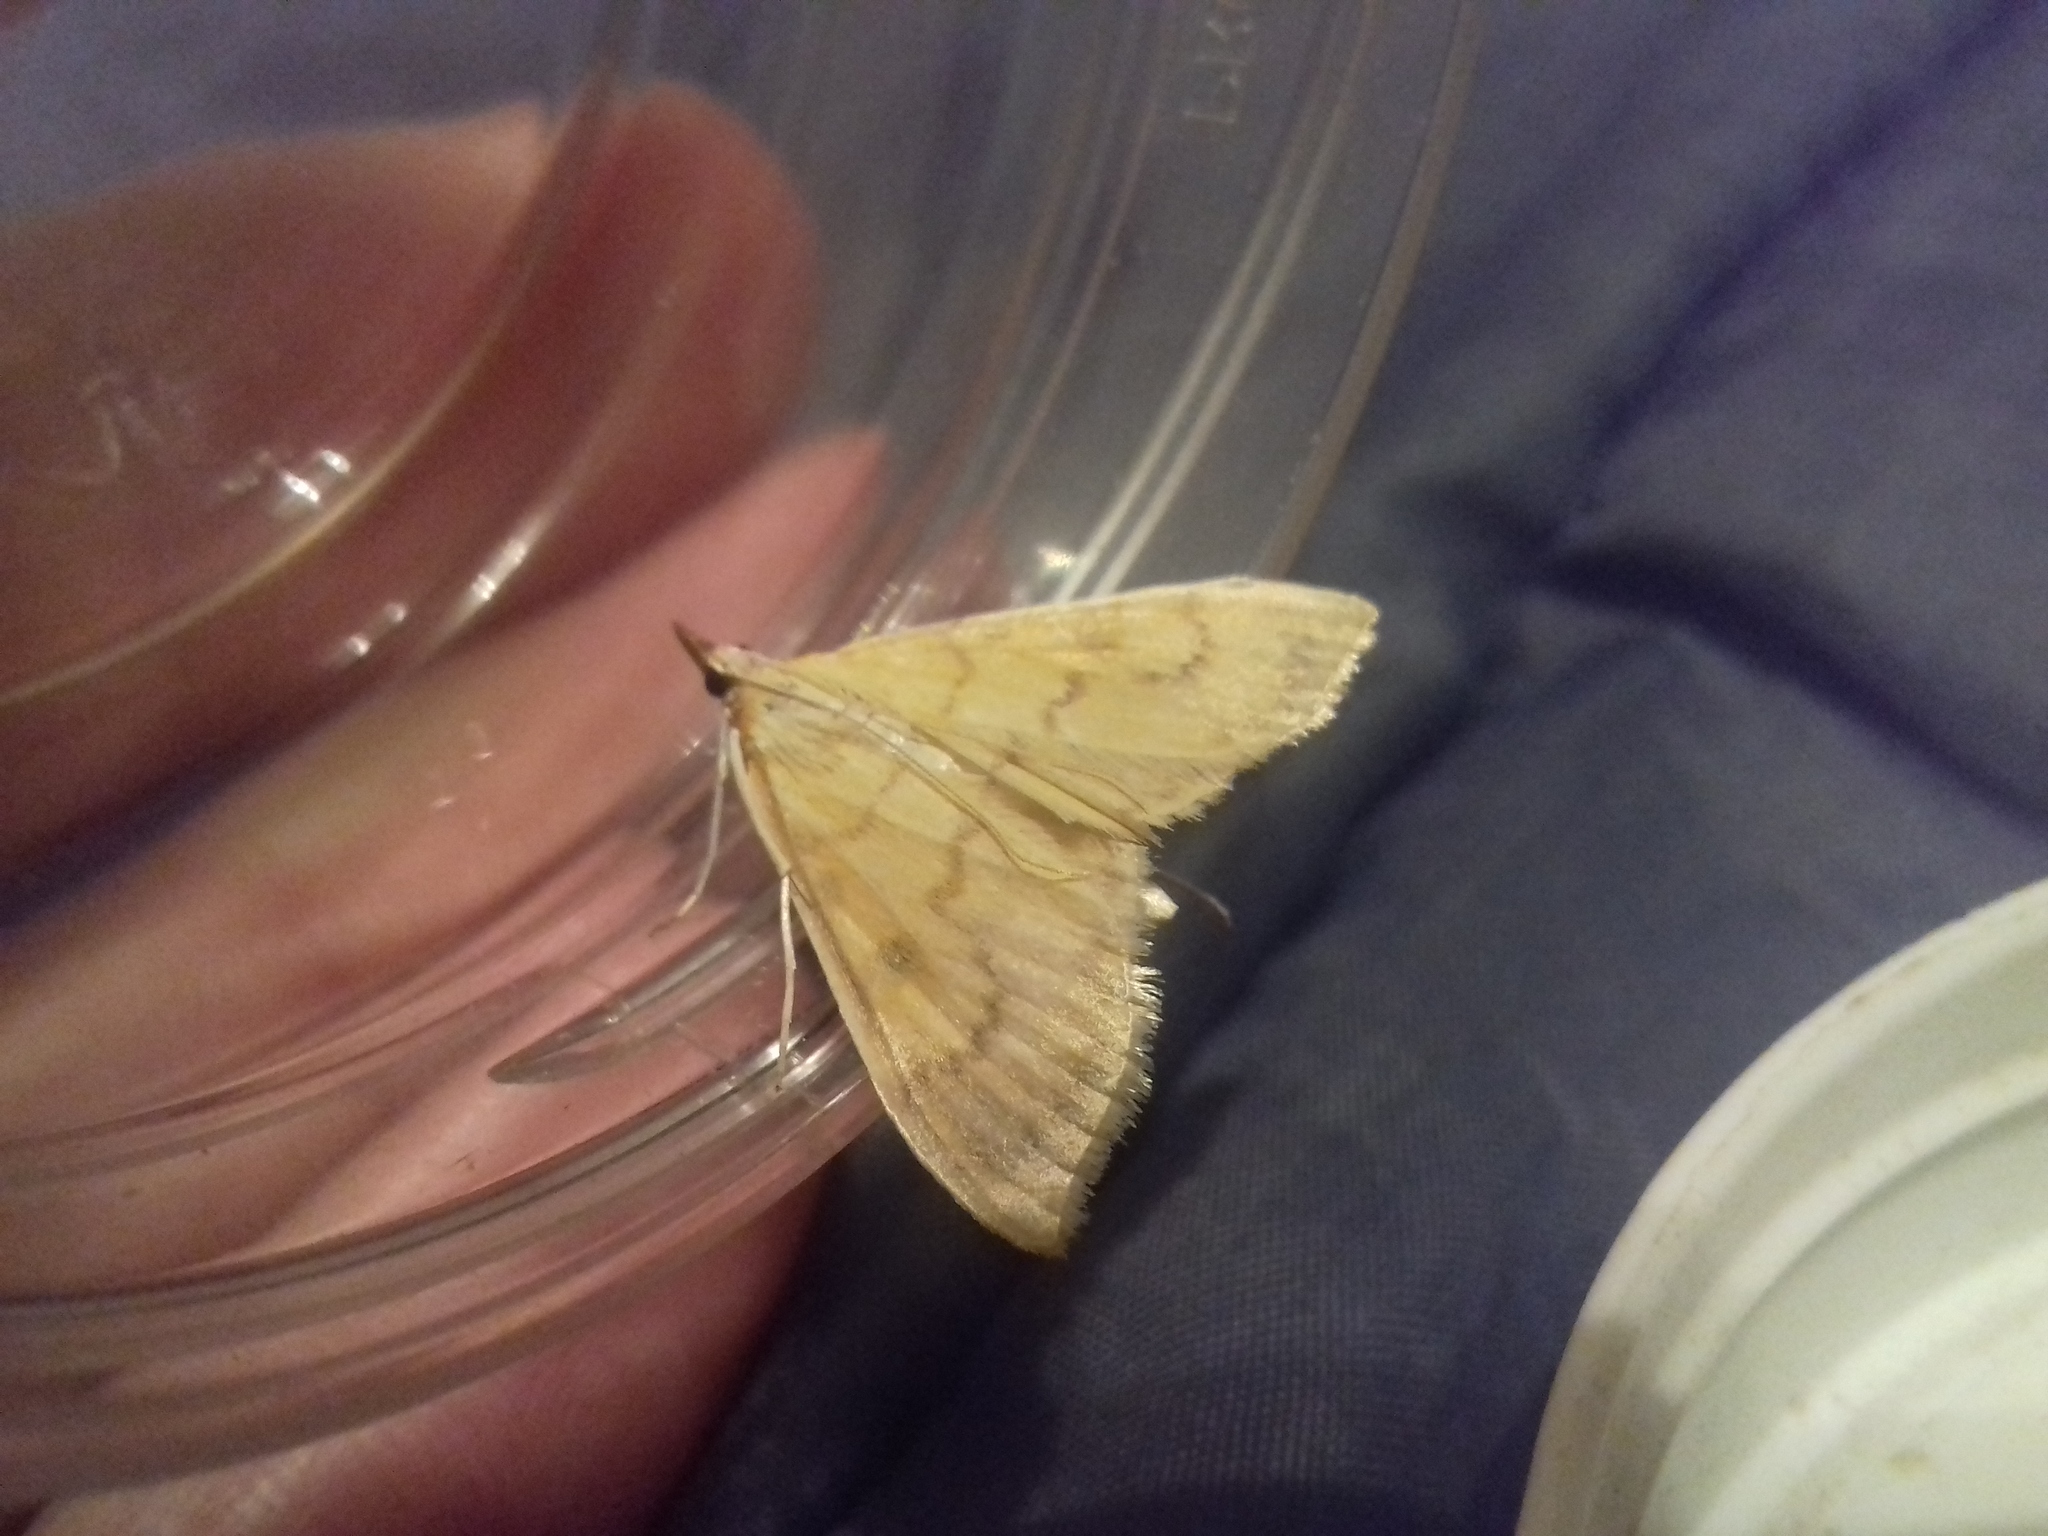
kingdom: Animalia
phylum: Arthropoda
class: Insecta
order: Lepidoptera
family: Crambidae
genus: Ostrinia
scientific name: Ostrinia nubilalis
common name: European corn borer
